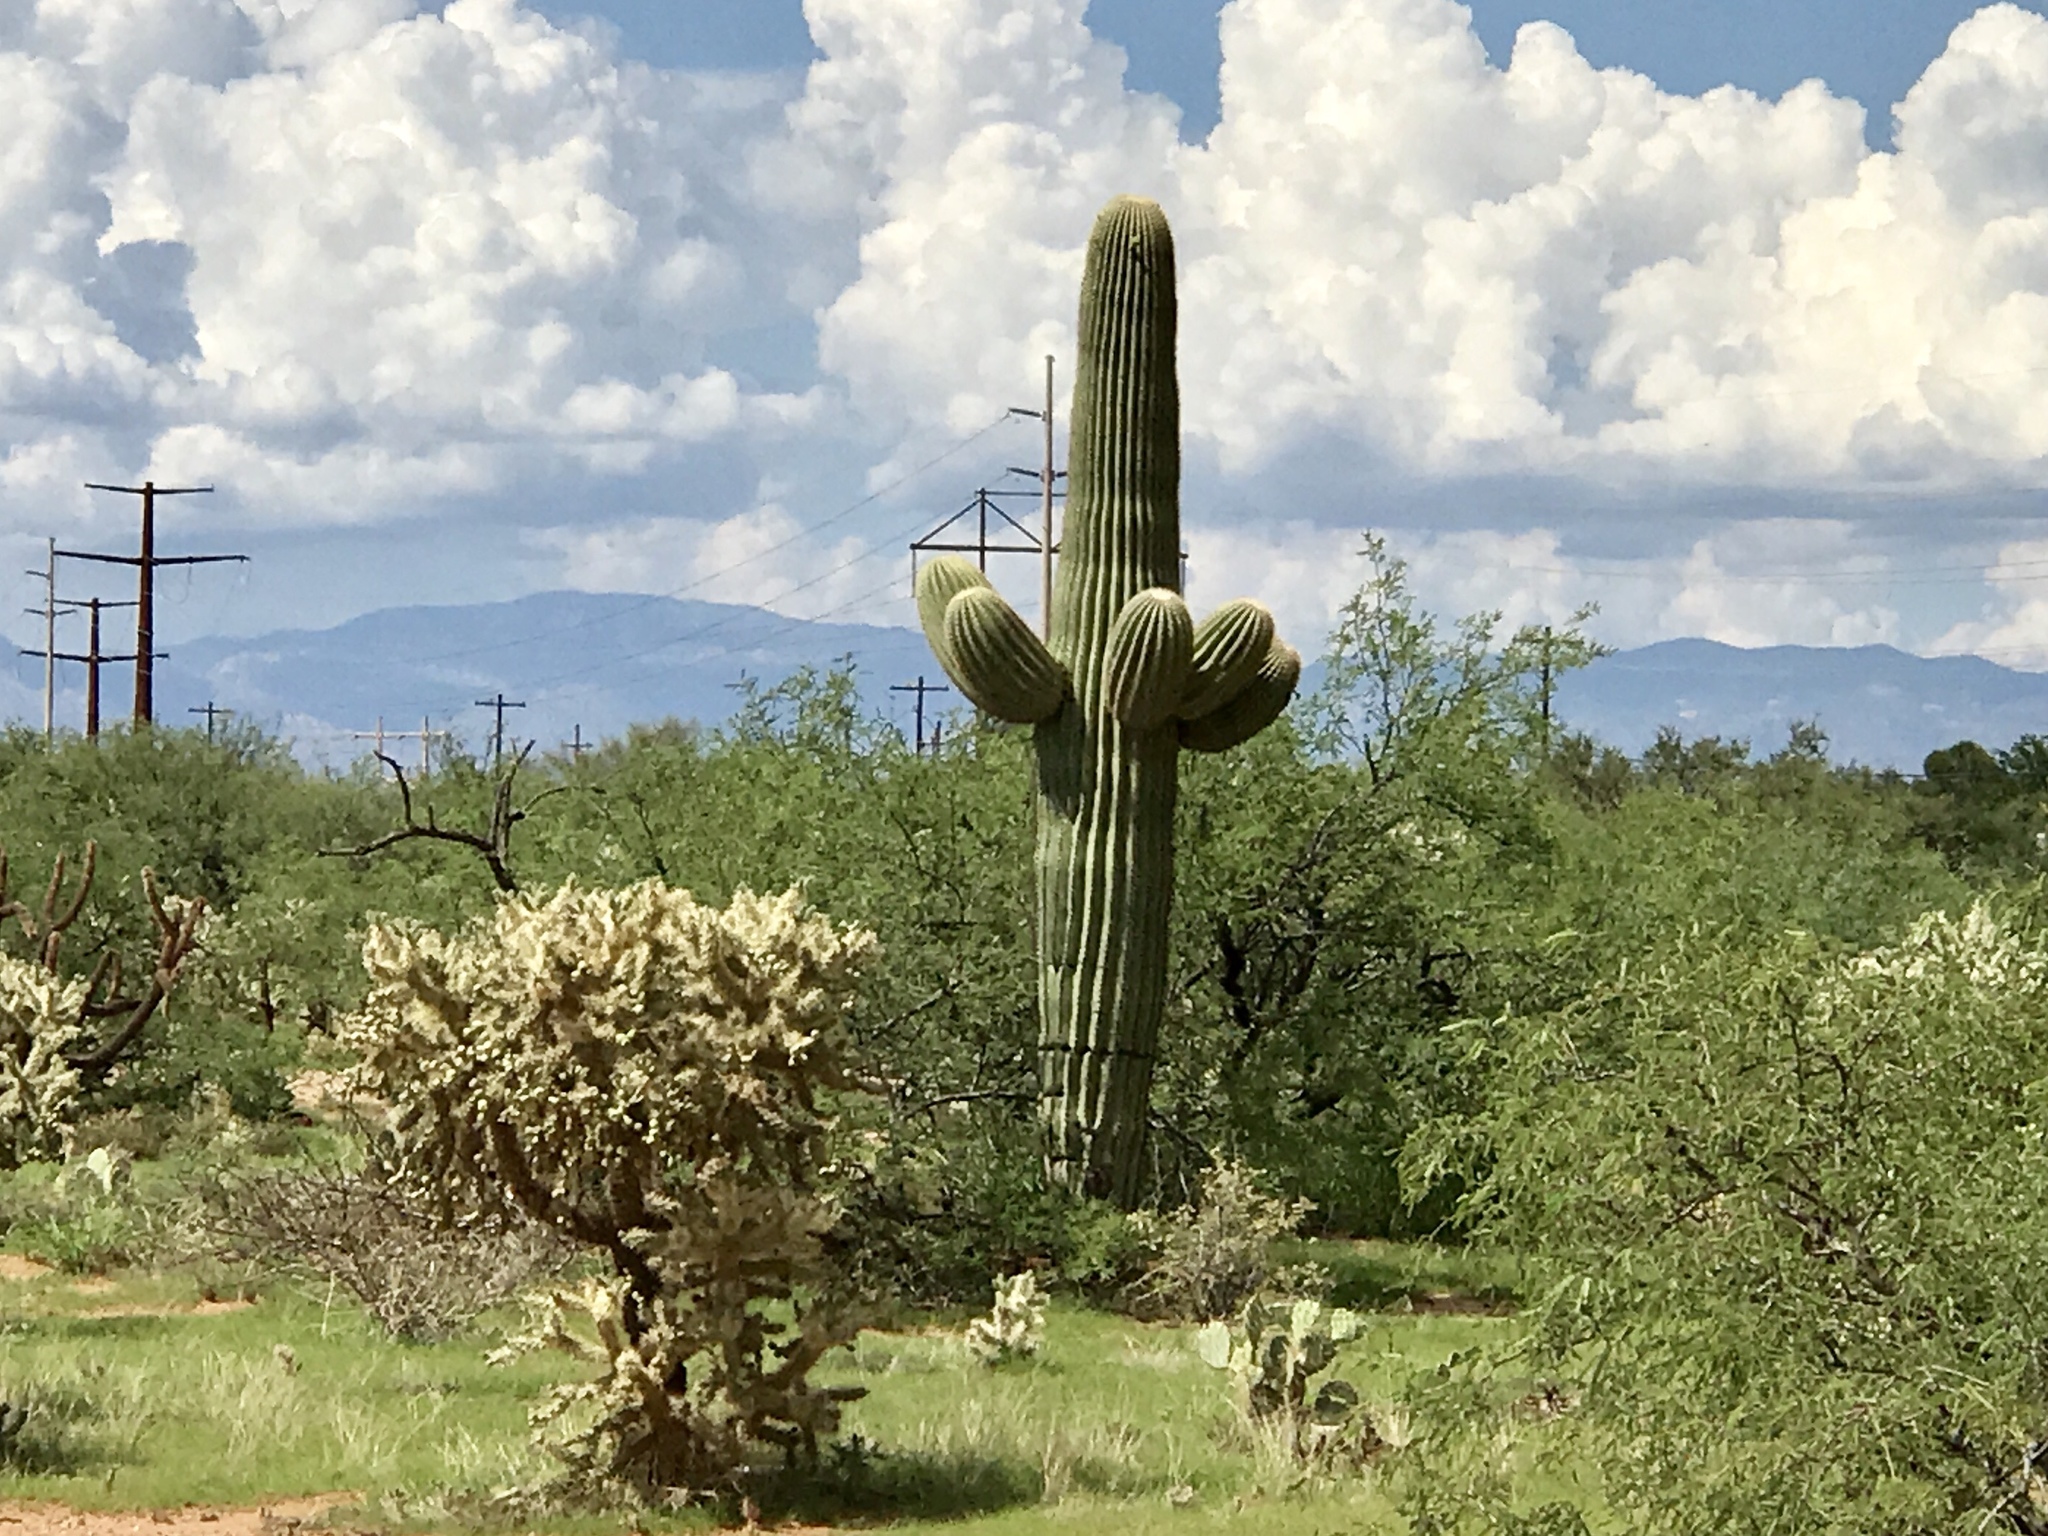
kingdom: Plantae
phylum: Tracheophyta
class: Magnoliopsida
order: Caryophyllales
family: Cactaceae
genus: Carnegiea
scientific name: Carnegiea gigantea
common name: Saguaro
